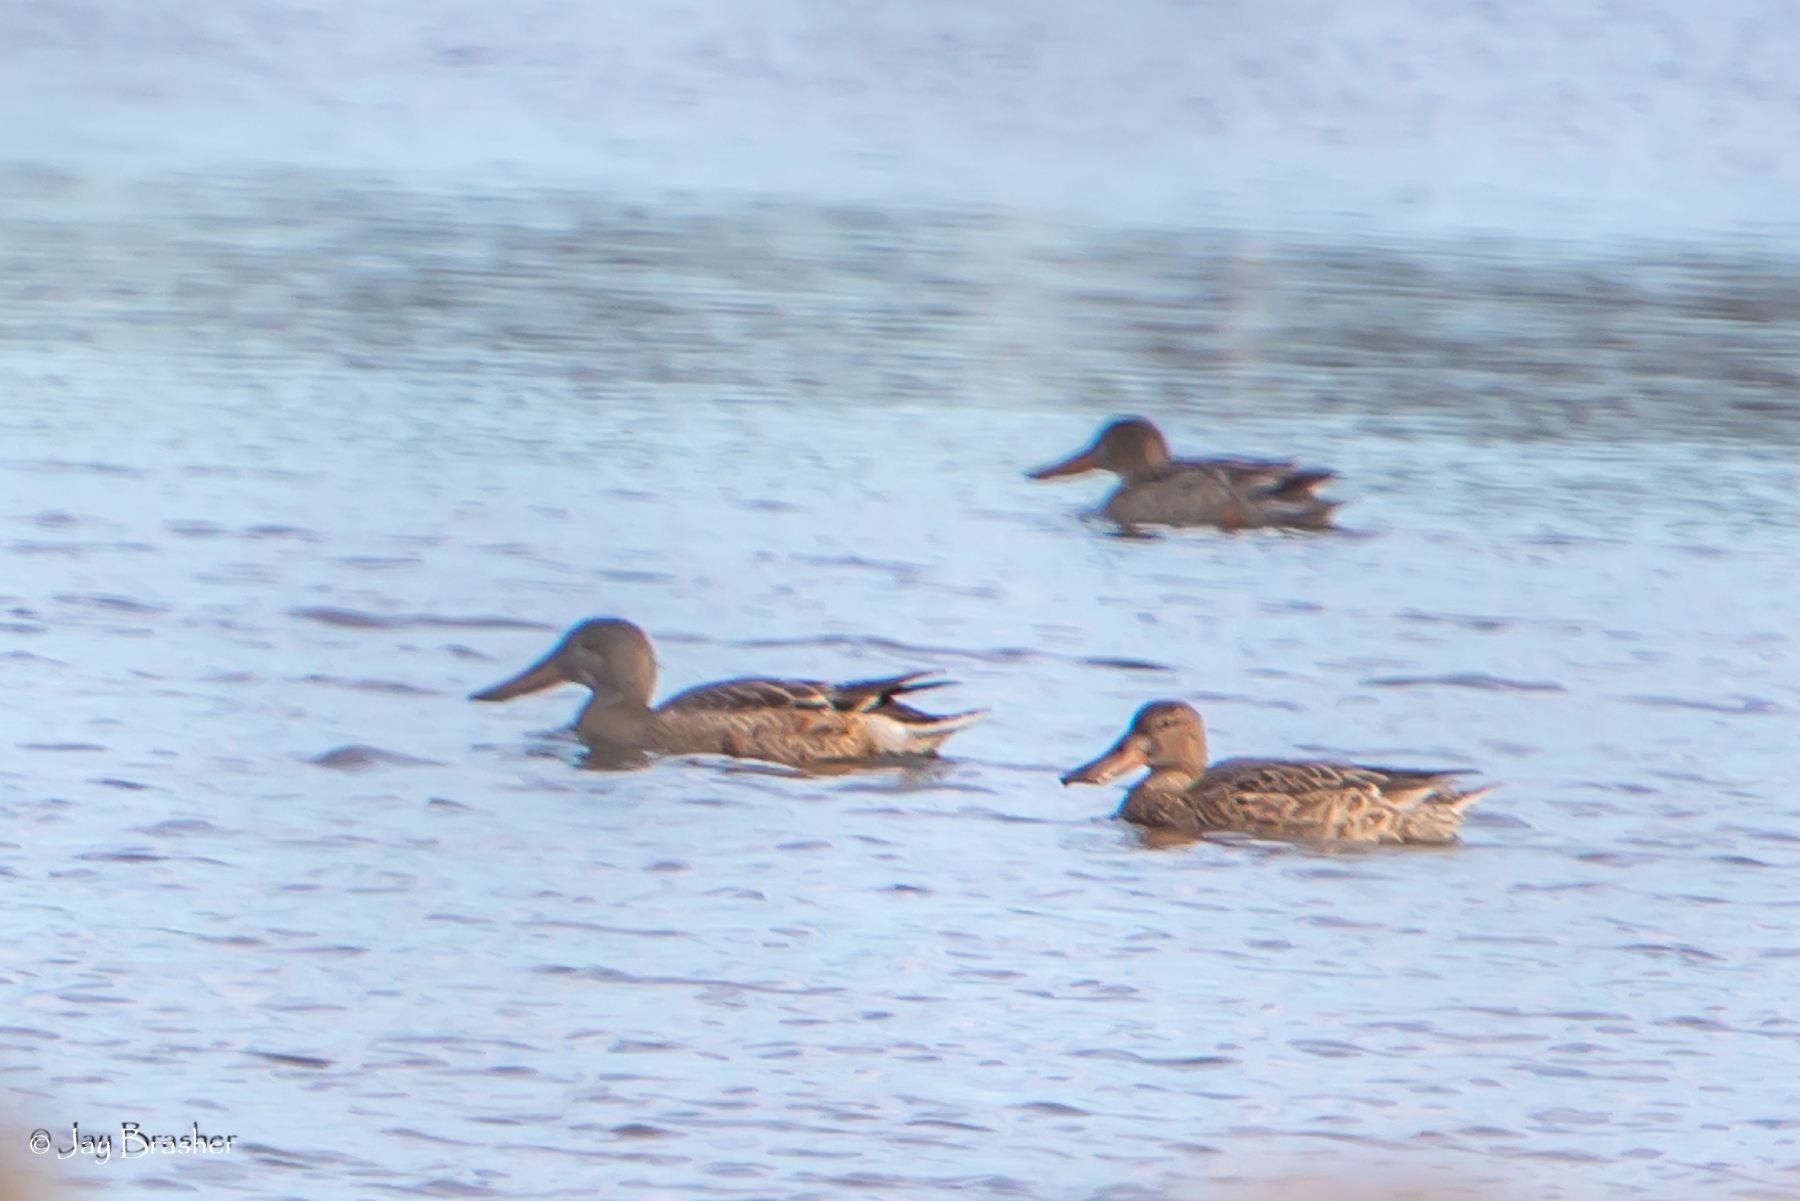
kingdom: Animalia
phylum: Chordata
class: Aves
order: Anseriformes
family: Anatidae
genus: Spatula
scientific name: Spatula clypeata
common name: Northern shoveler
